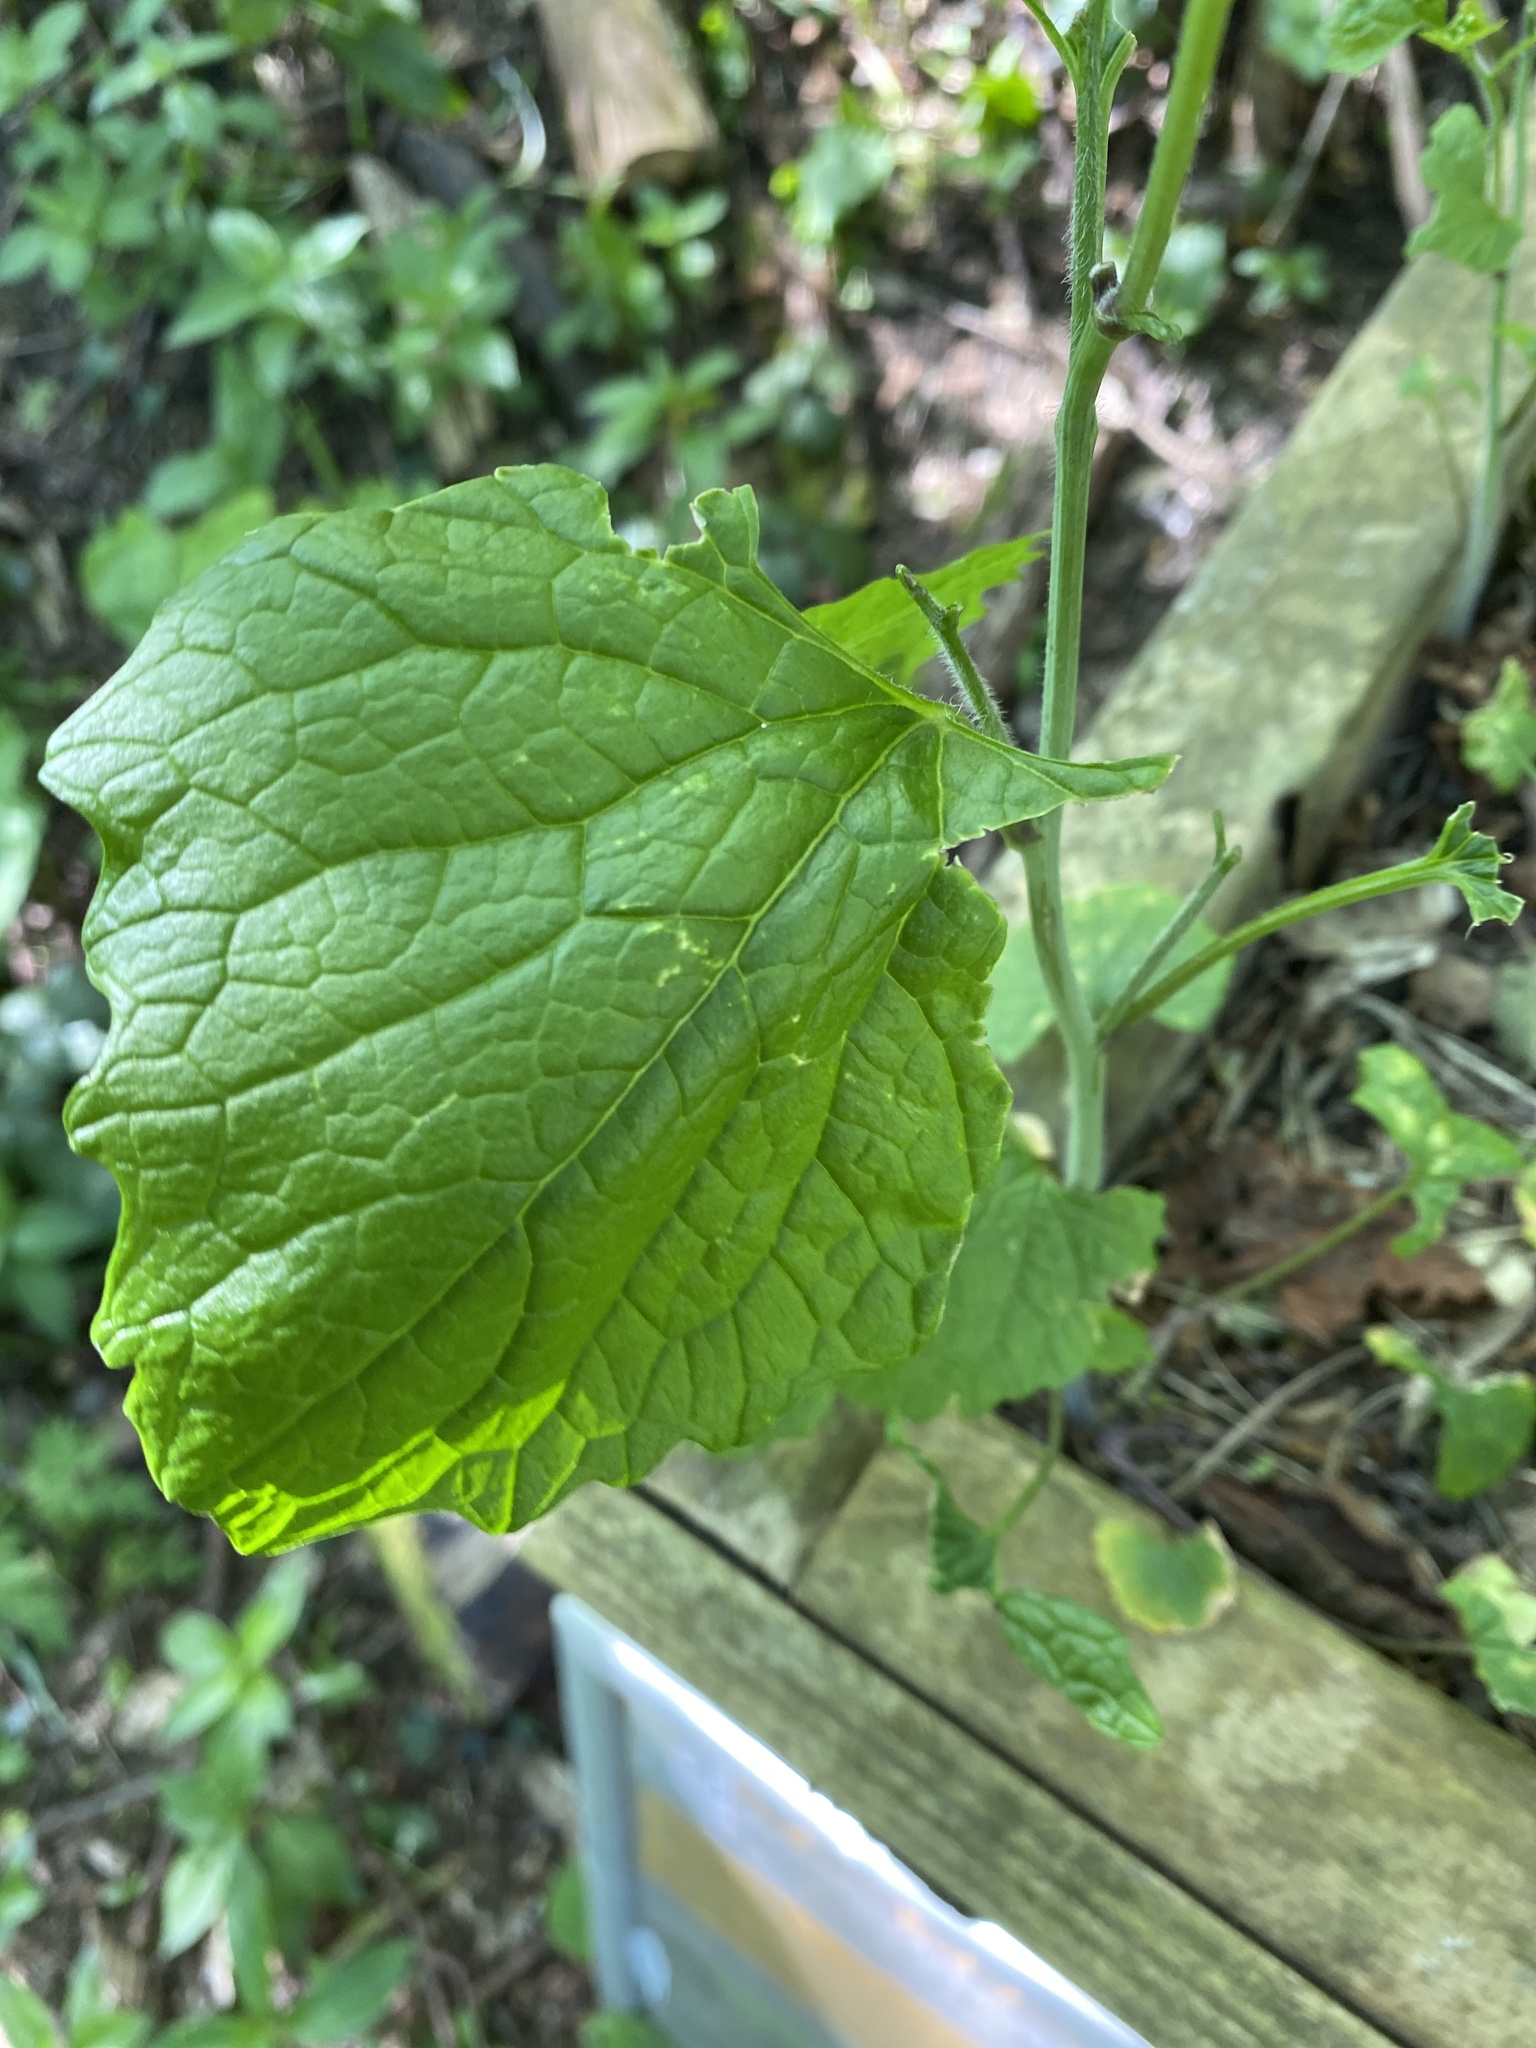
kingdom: Plantae
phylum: Tracheophyta
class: Magnoliopsida
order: Brassicales
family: Brassicaceae
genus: Alliaria
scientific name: Alliaria petiolata
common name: Garlic mustard
